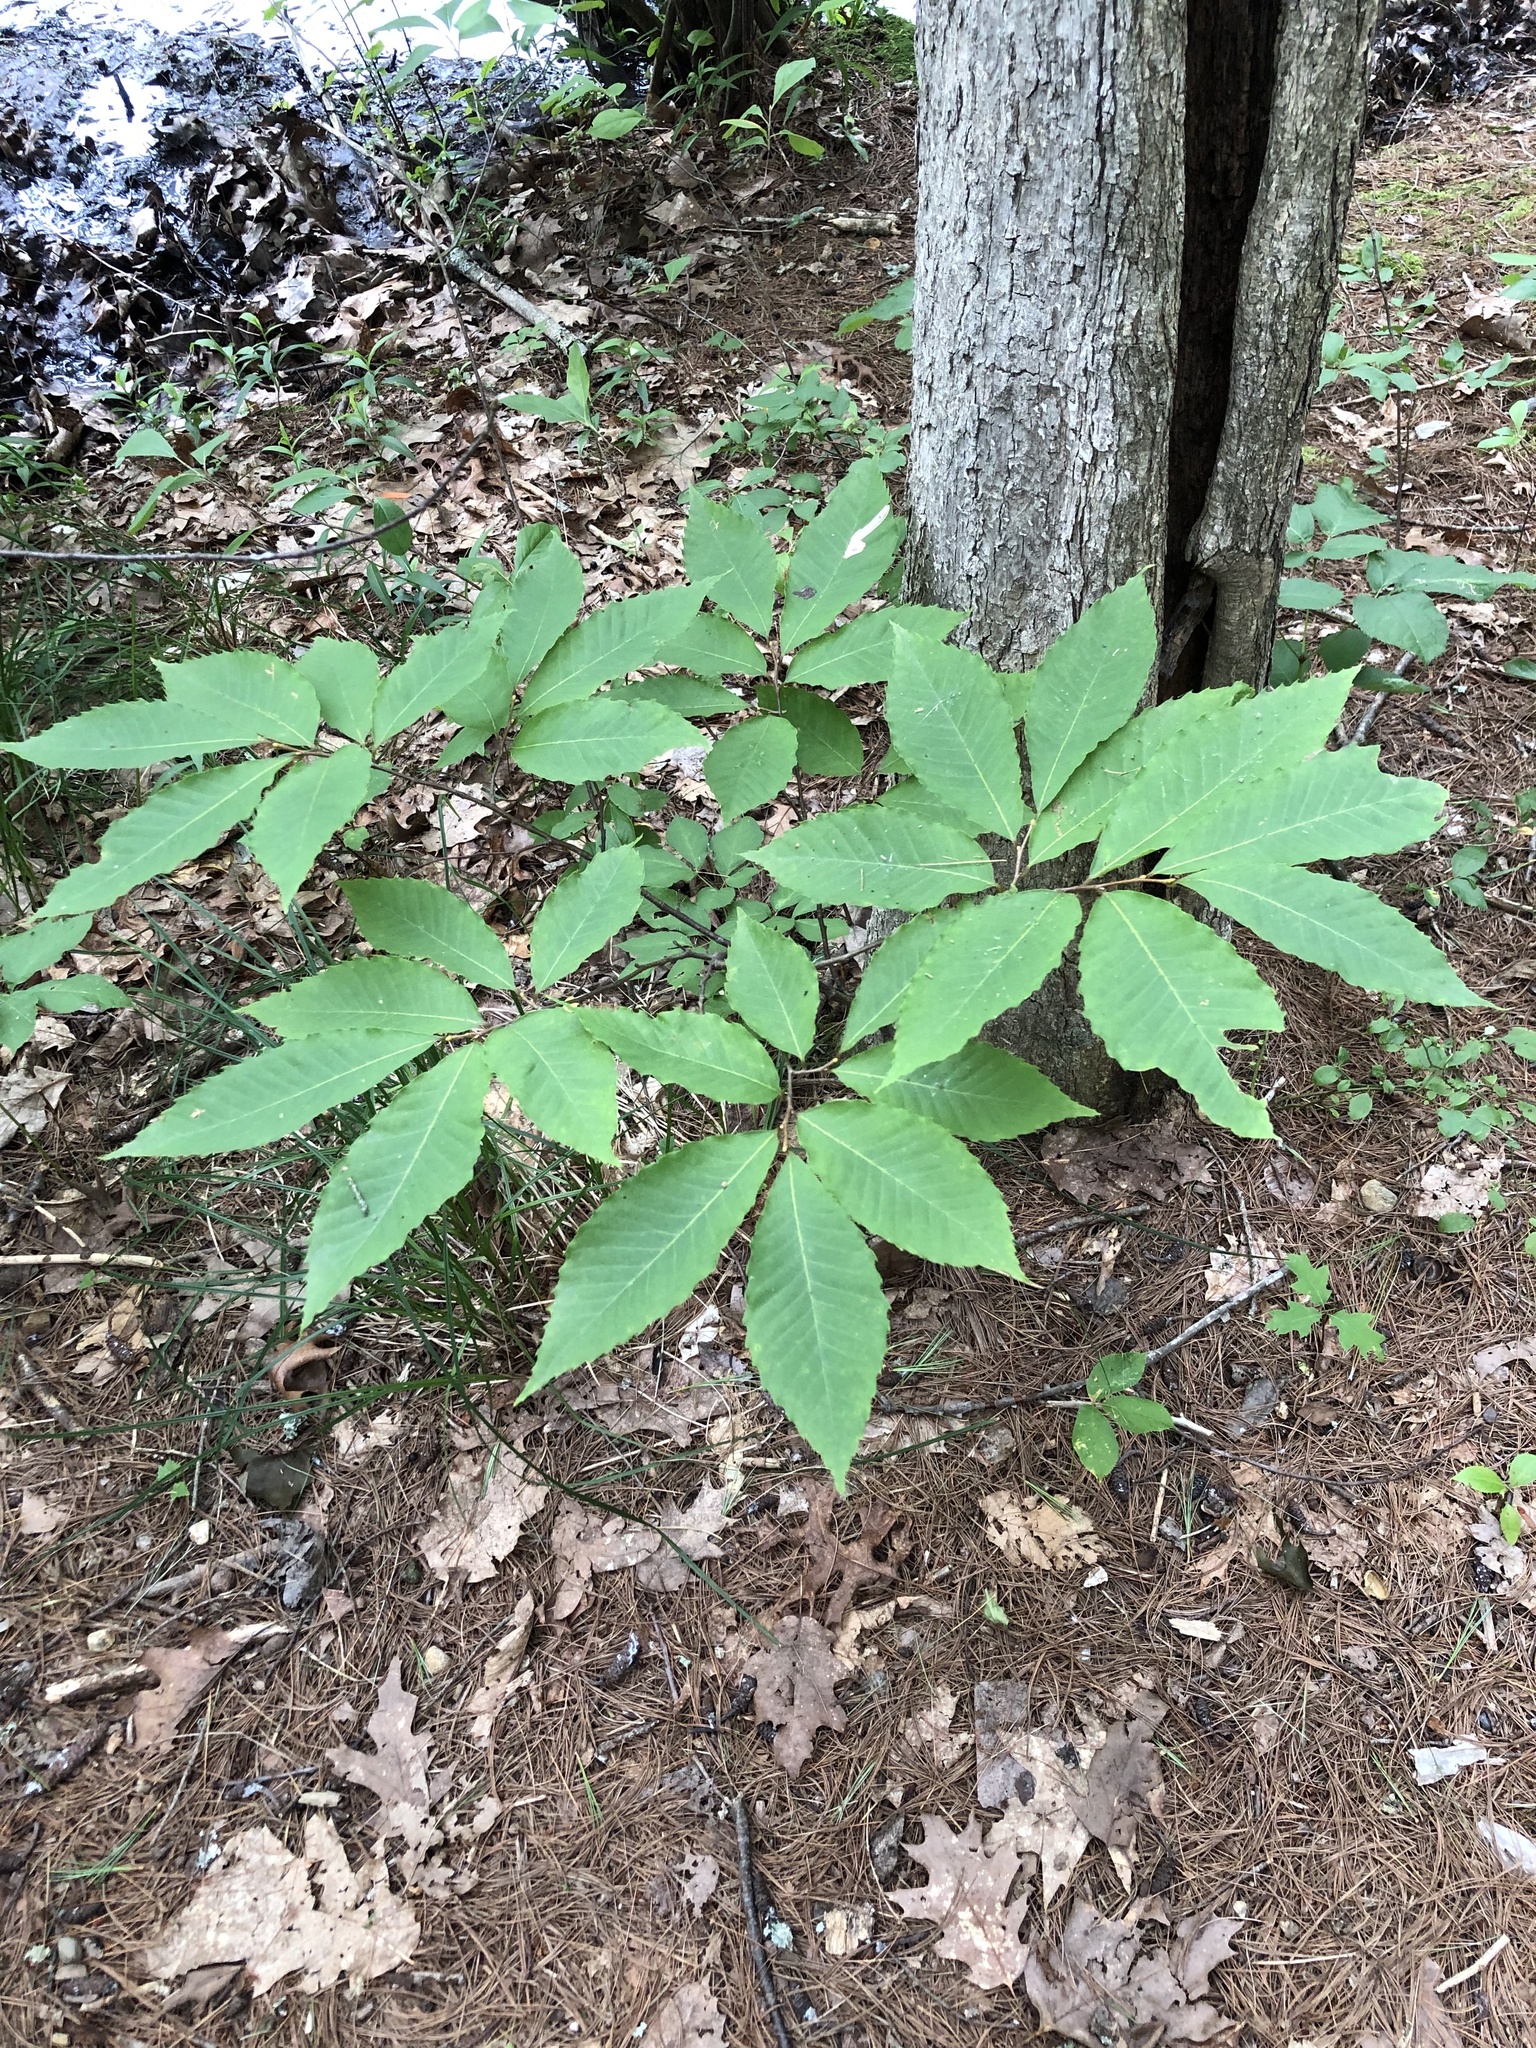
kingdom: Plantae
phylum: Tracheophyta
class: Magnoliopsida
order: Fagales
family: Fagaceae
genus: Castanea
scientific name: Castanea dentata
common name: American chestnut
